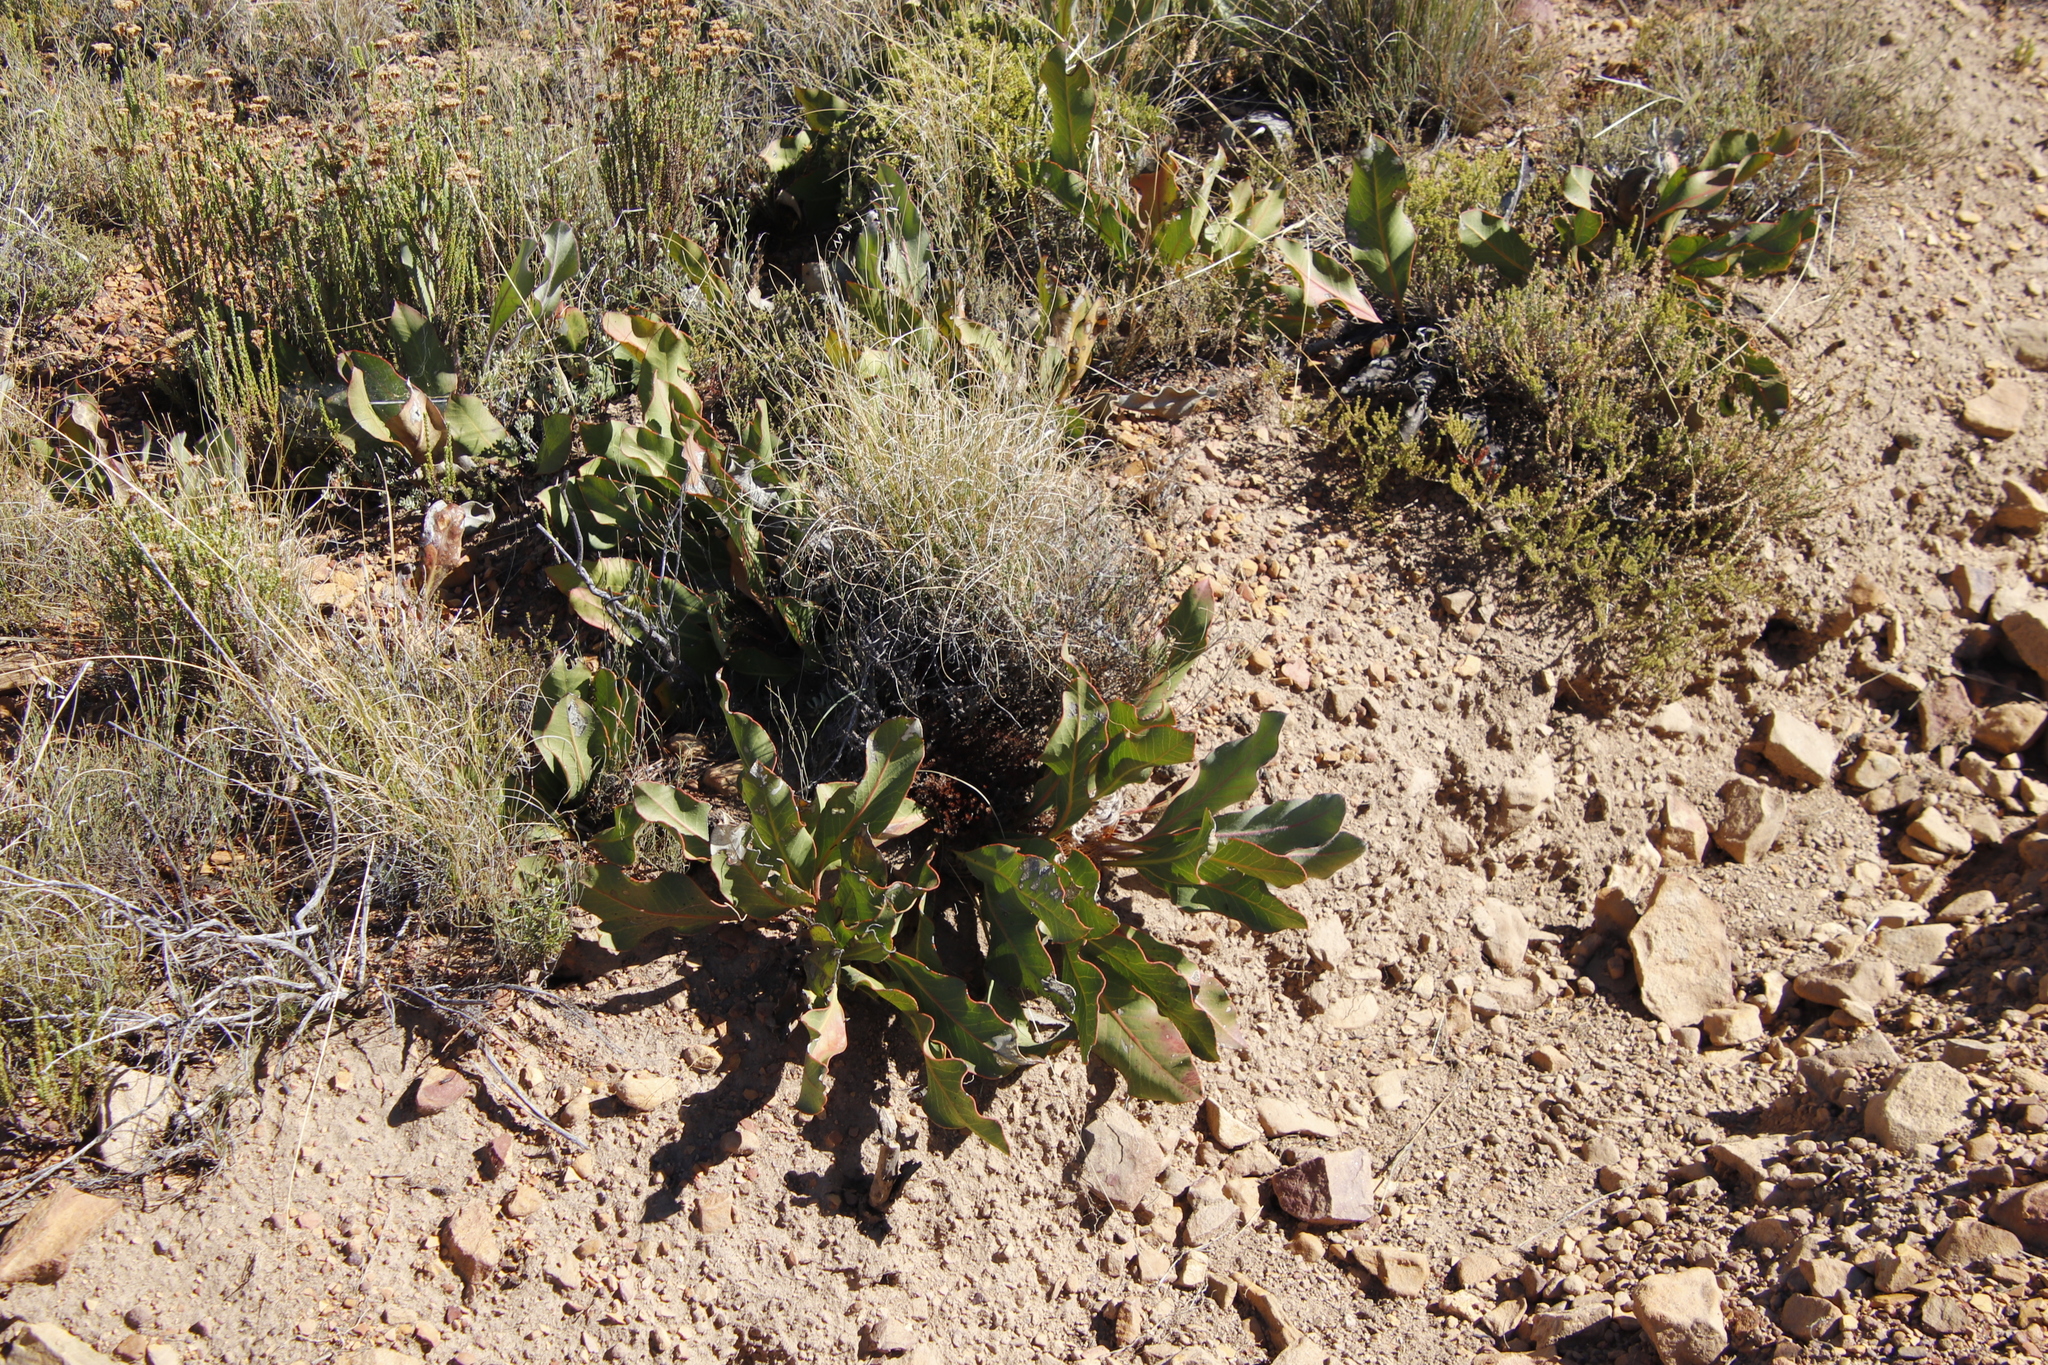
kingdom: Plantae
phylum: Tracheophyta
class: Magnoliopsida
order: Proteales
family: Proteaceae
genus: Protea
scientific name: Protea scolopendriifolia
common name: Harts-tongue-fern sugarbush
